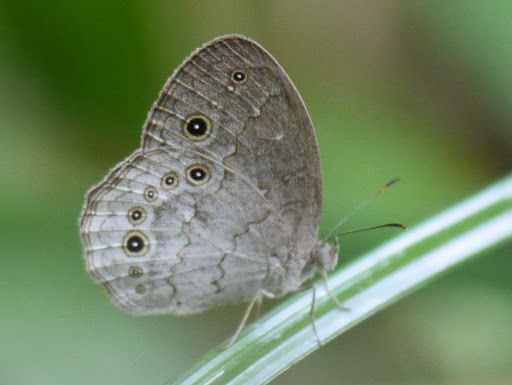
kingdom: Animalia
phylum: Arthropoda
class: Insecta
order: Lepidoptera
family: Nymphalidae
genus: Bicyclus
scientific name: Bicyclus taenias
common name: Grey bush brown
